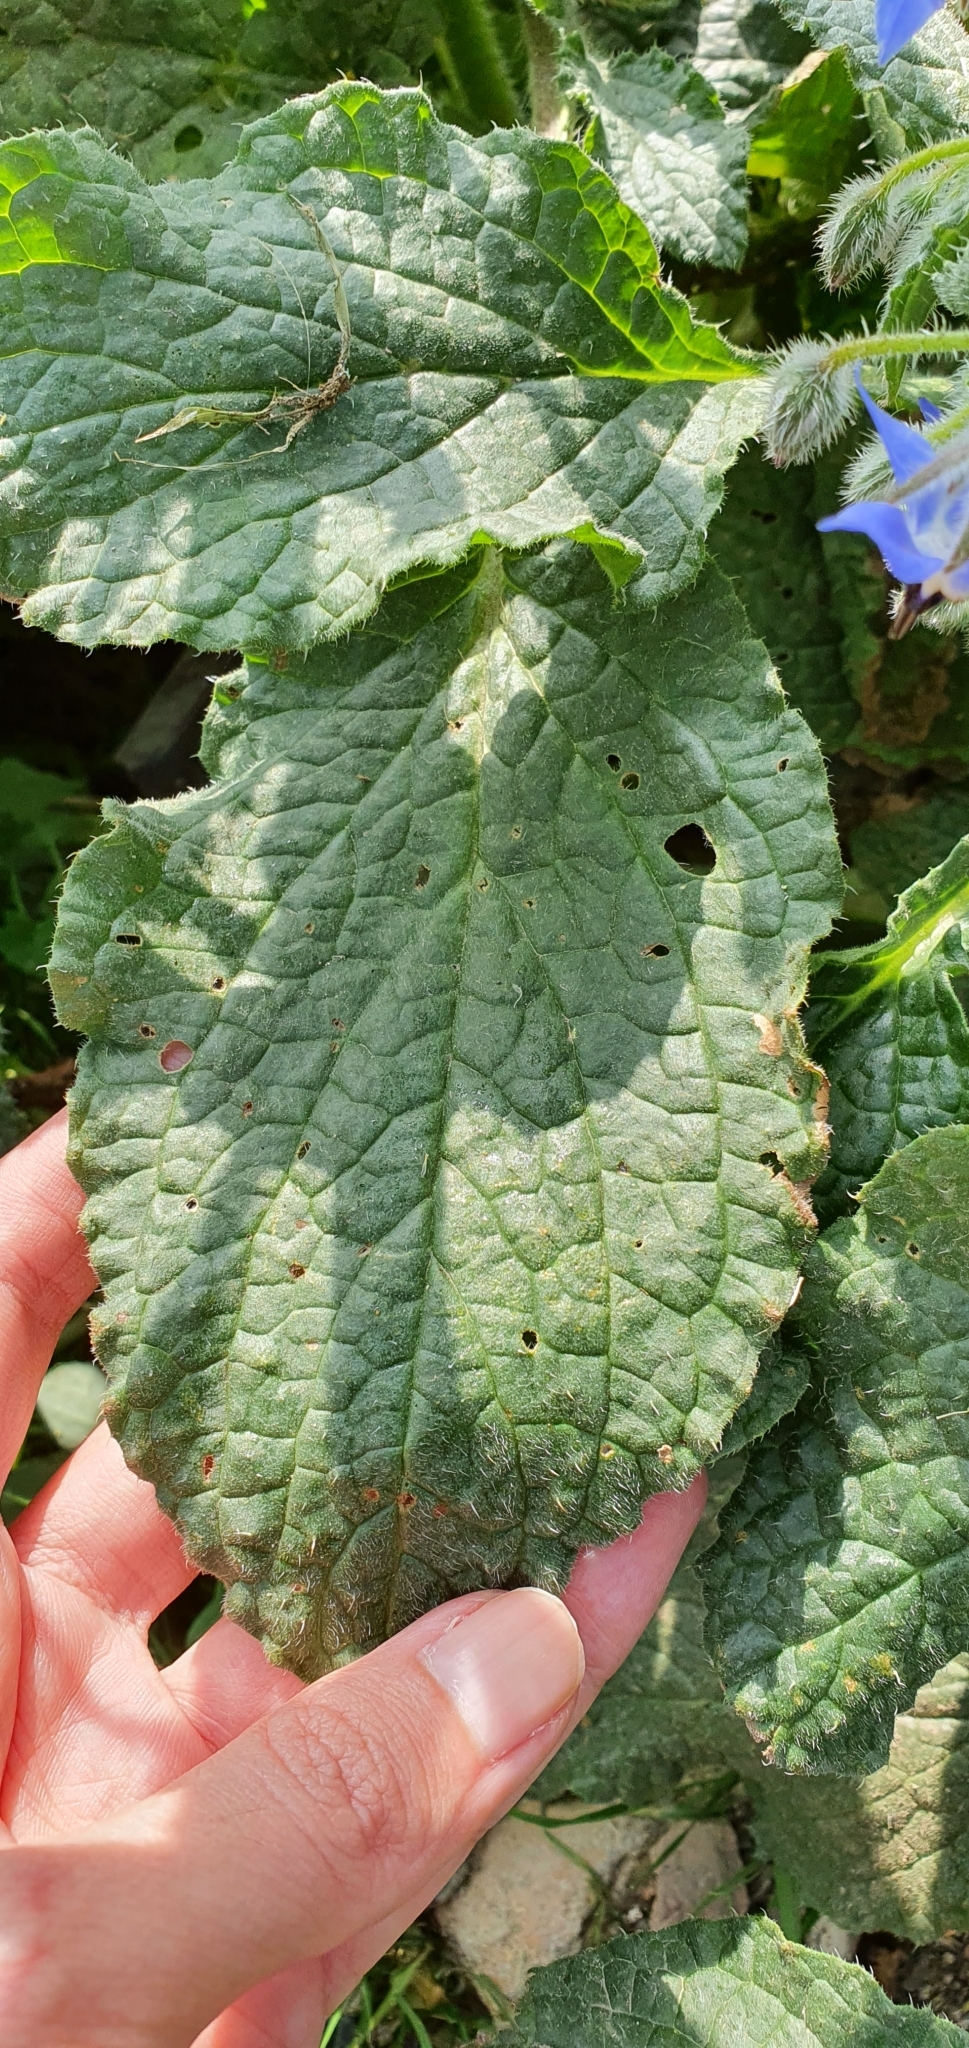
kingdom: Plantae
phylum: Tracheophyta
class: Magnoliopsida
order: Boraginales
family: Boraginaceae
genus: Borago
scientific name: Borago officinalis
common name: Borage
